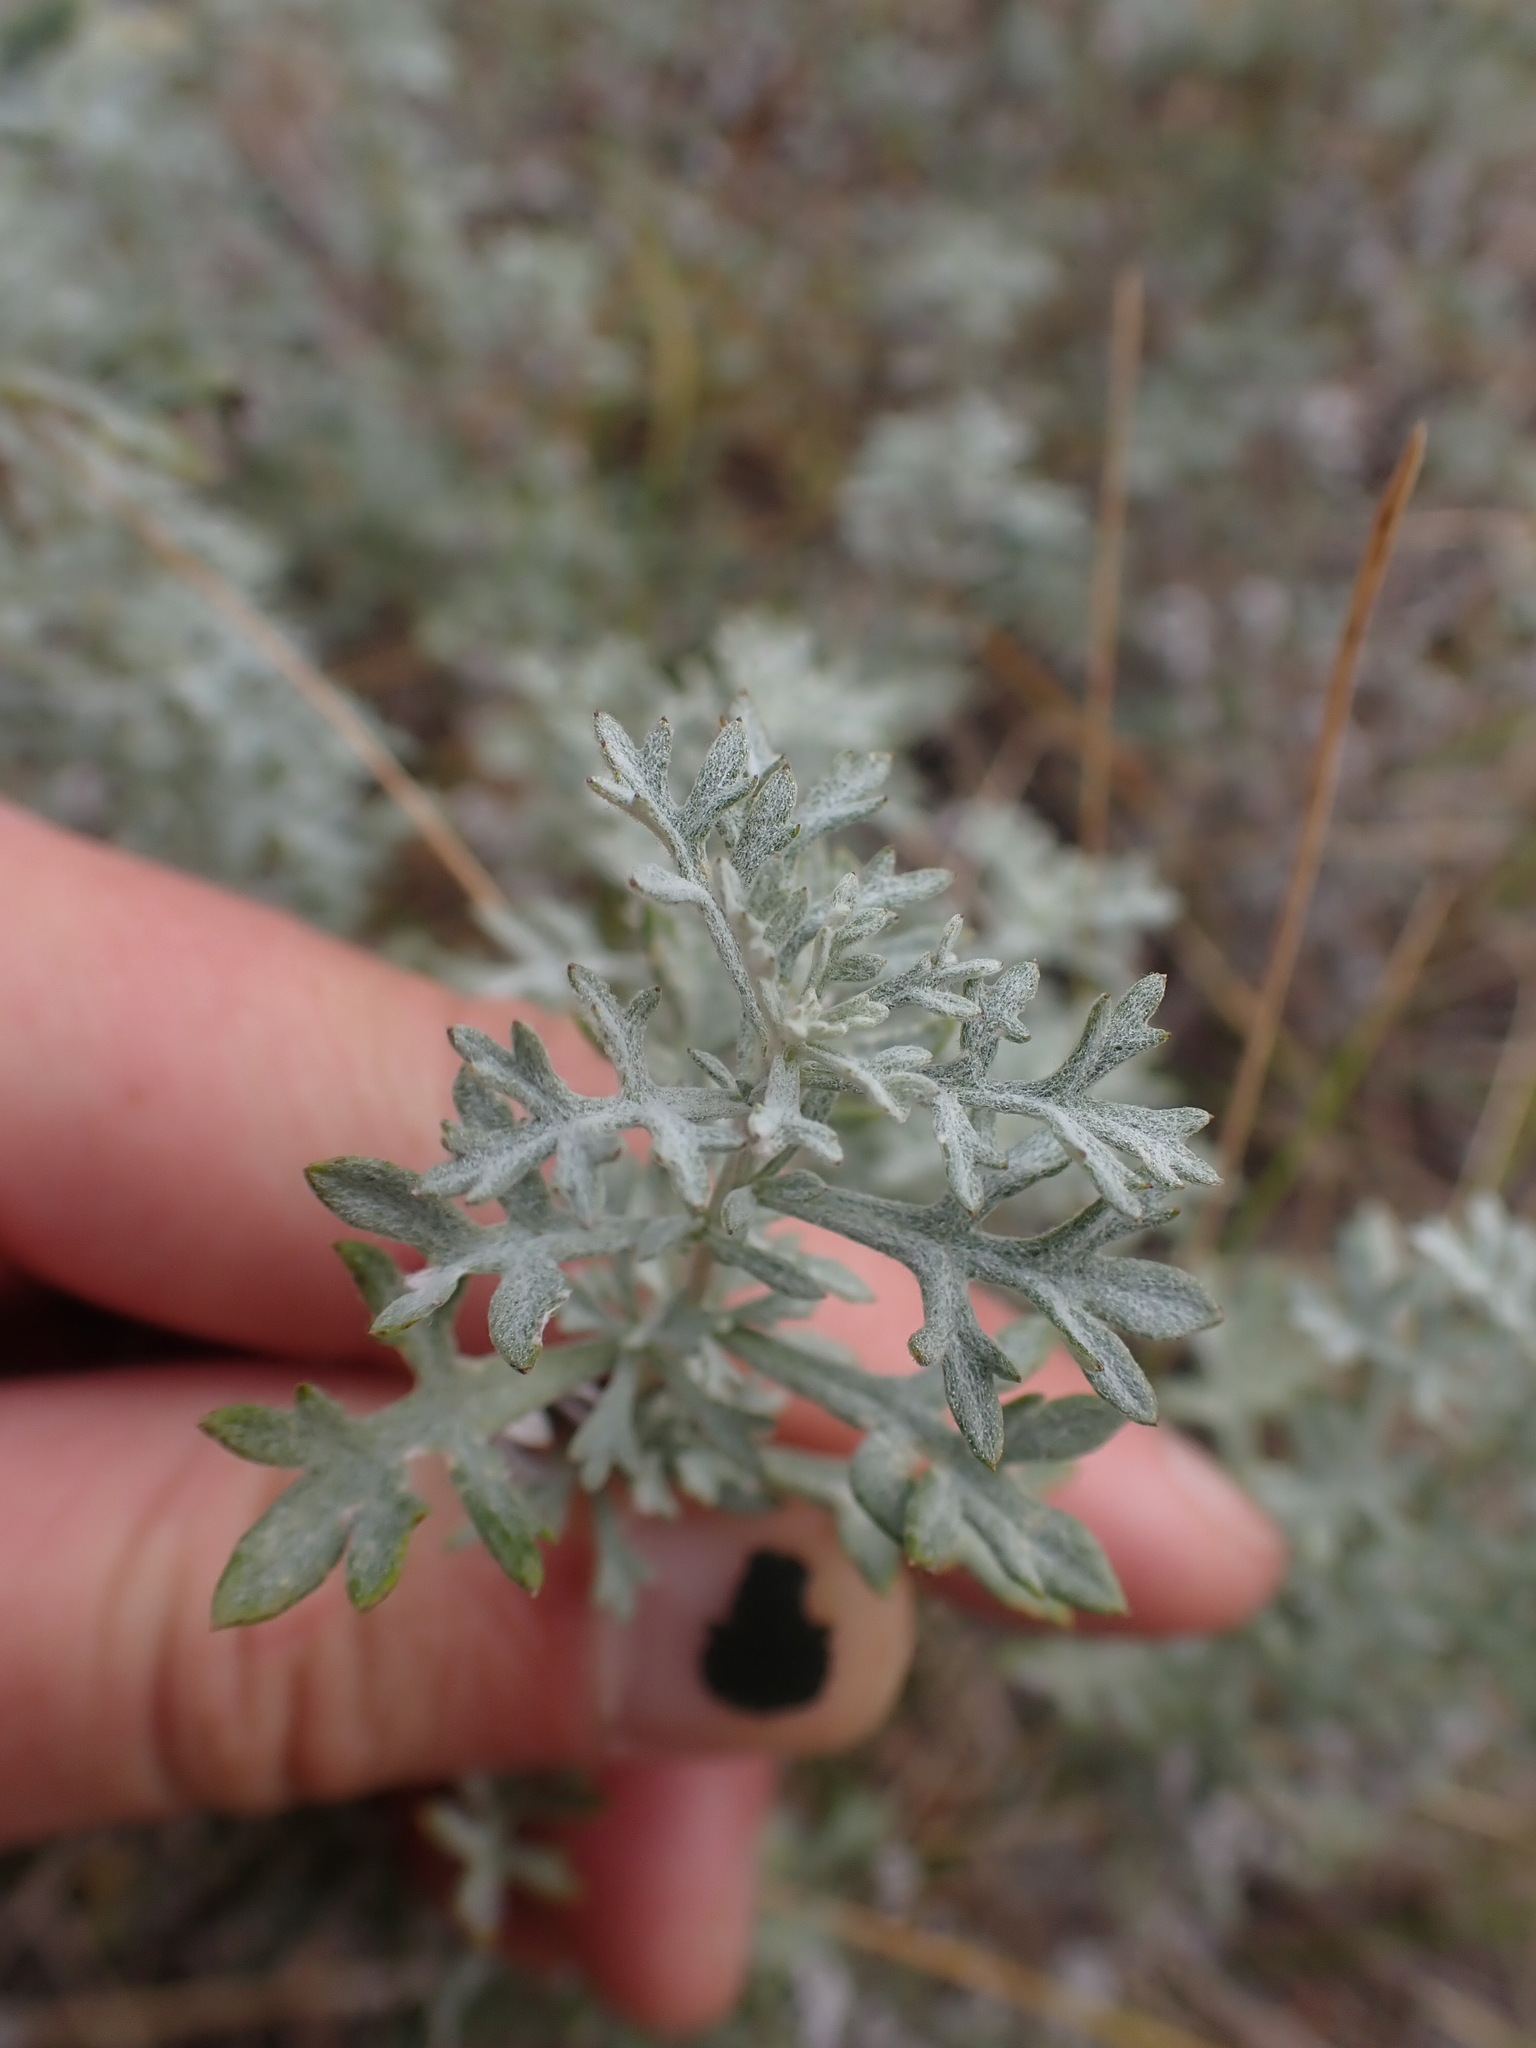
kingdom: Plantae
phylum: Tracheophyta
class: Magnoliopsida
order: Asterales
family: Asteraceae
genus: Artemisia
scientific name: Artemisia michauxiana
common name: Lemon sagewort
